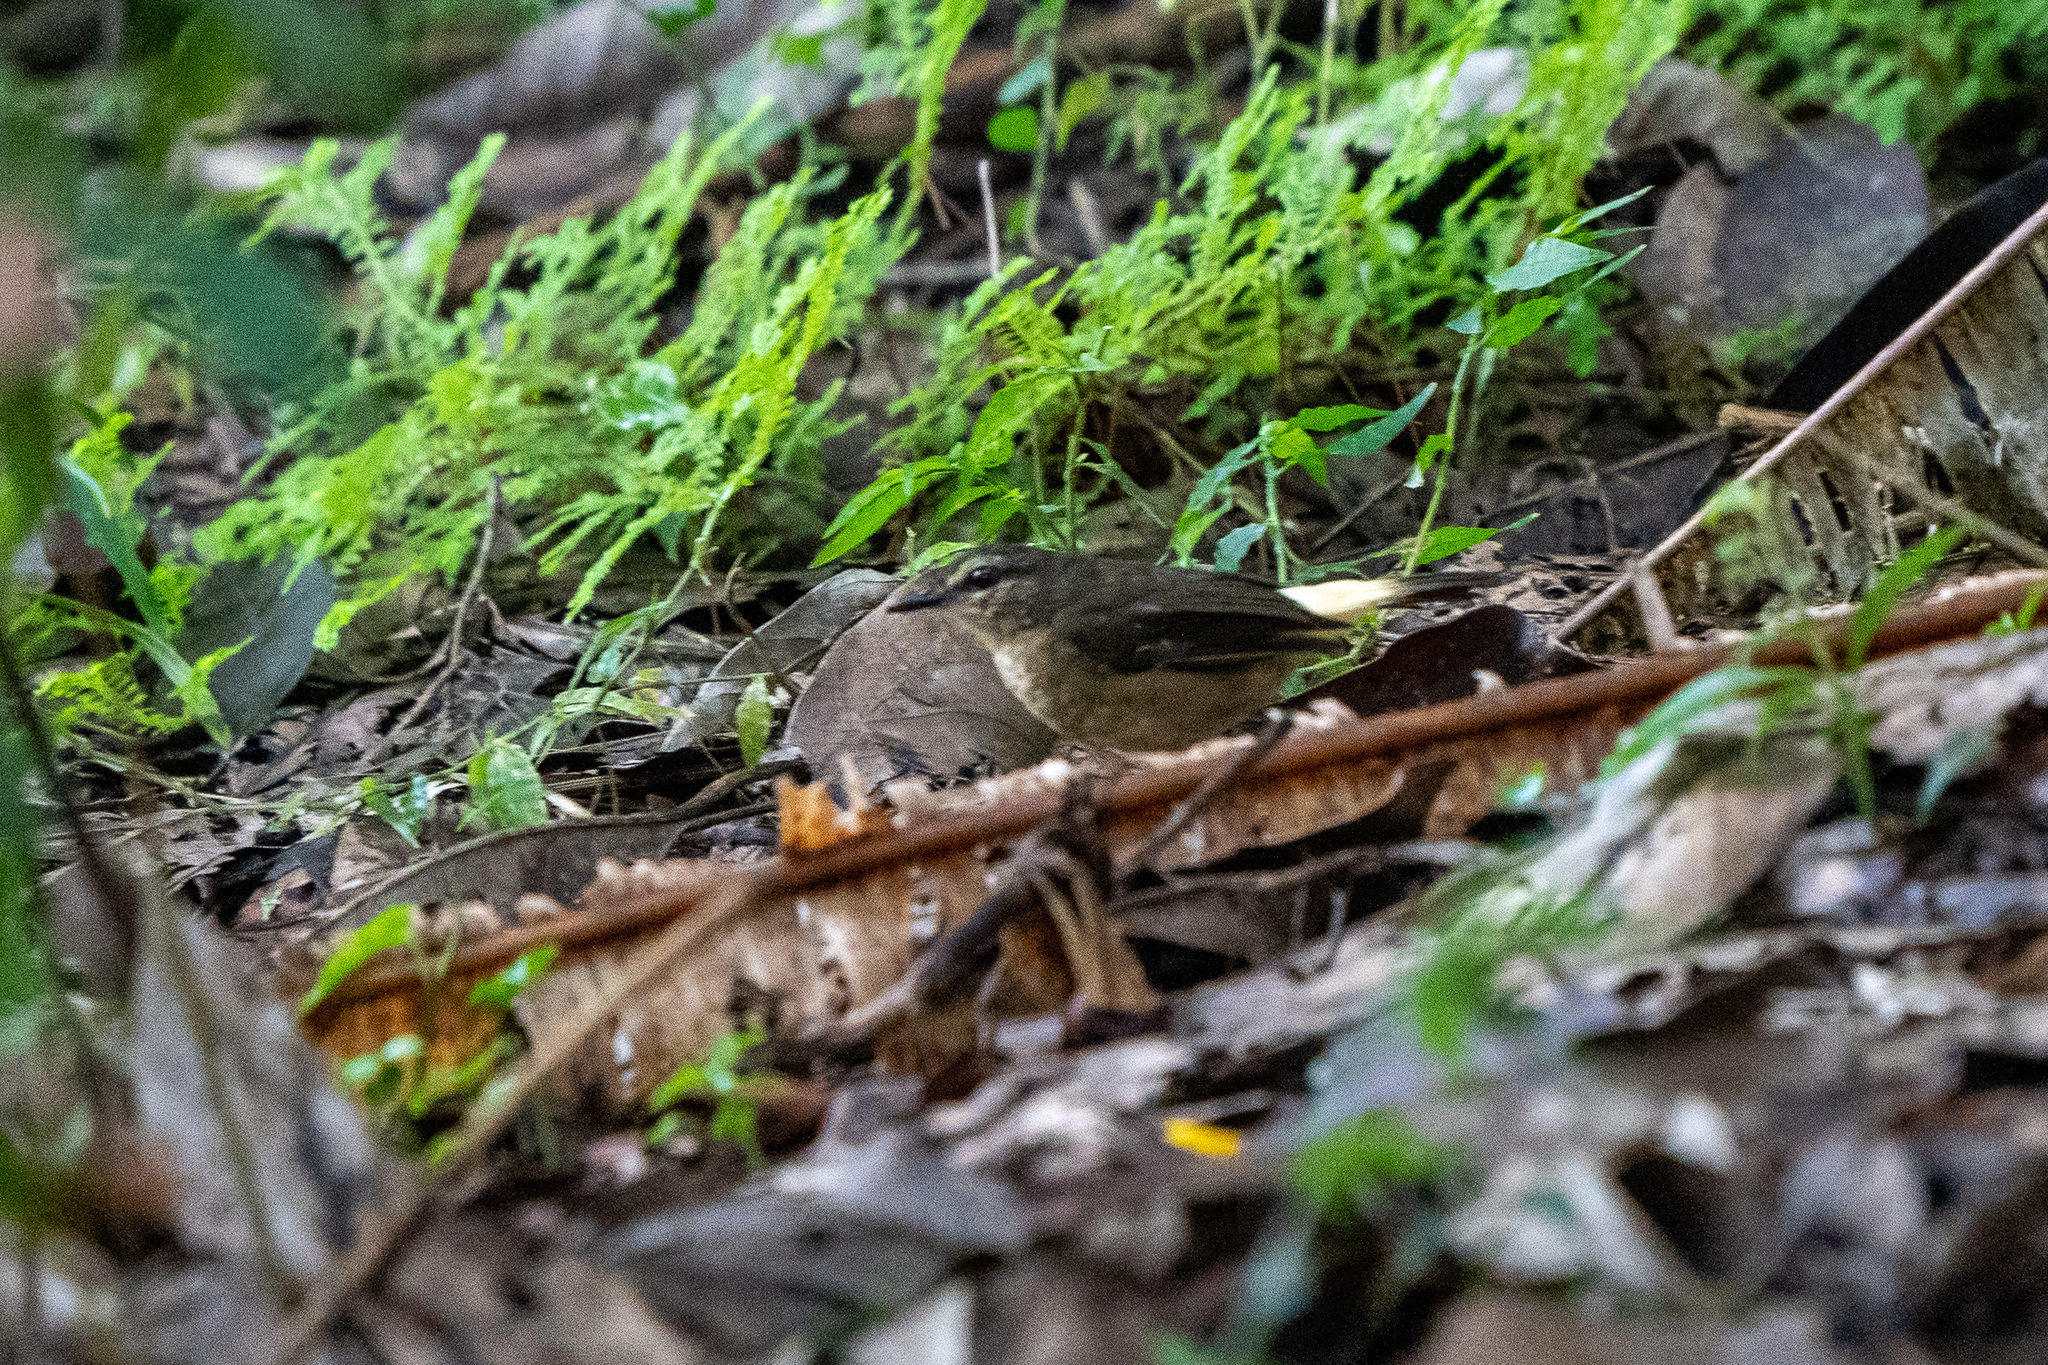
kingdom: Animalia
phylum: Chordata
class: Aves
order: Passeriformes
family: Parulidae
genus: Myiothlypis
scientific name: Myiothlypis fulvicauda
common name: Buff-rumped warbler
